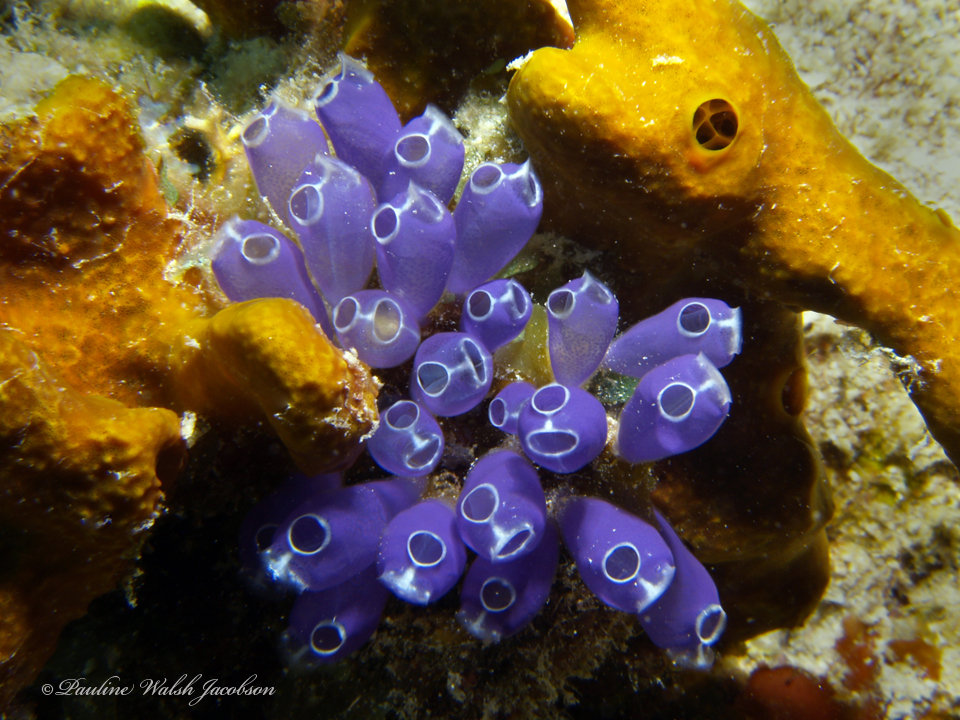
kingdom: Animalia
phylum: Chordata
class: Ascidiacea
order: Aplousobranchia
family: Clavelinidae
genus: Clavelina
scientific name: Clavelina puertosecensis
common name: Blue bell tunicate
